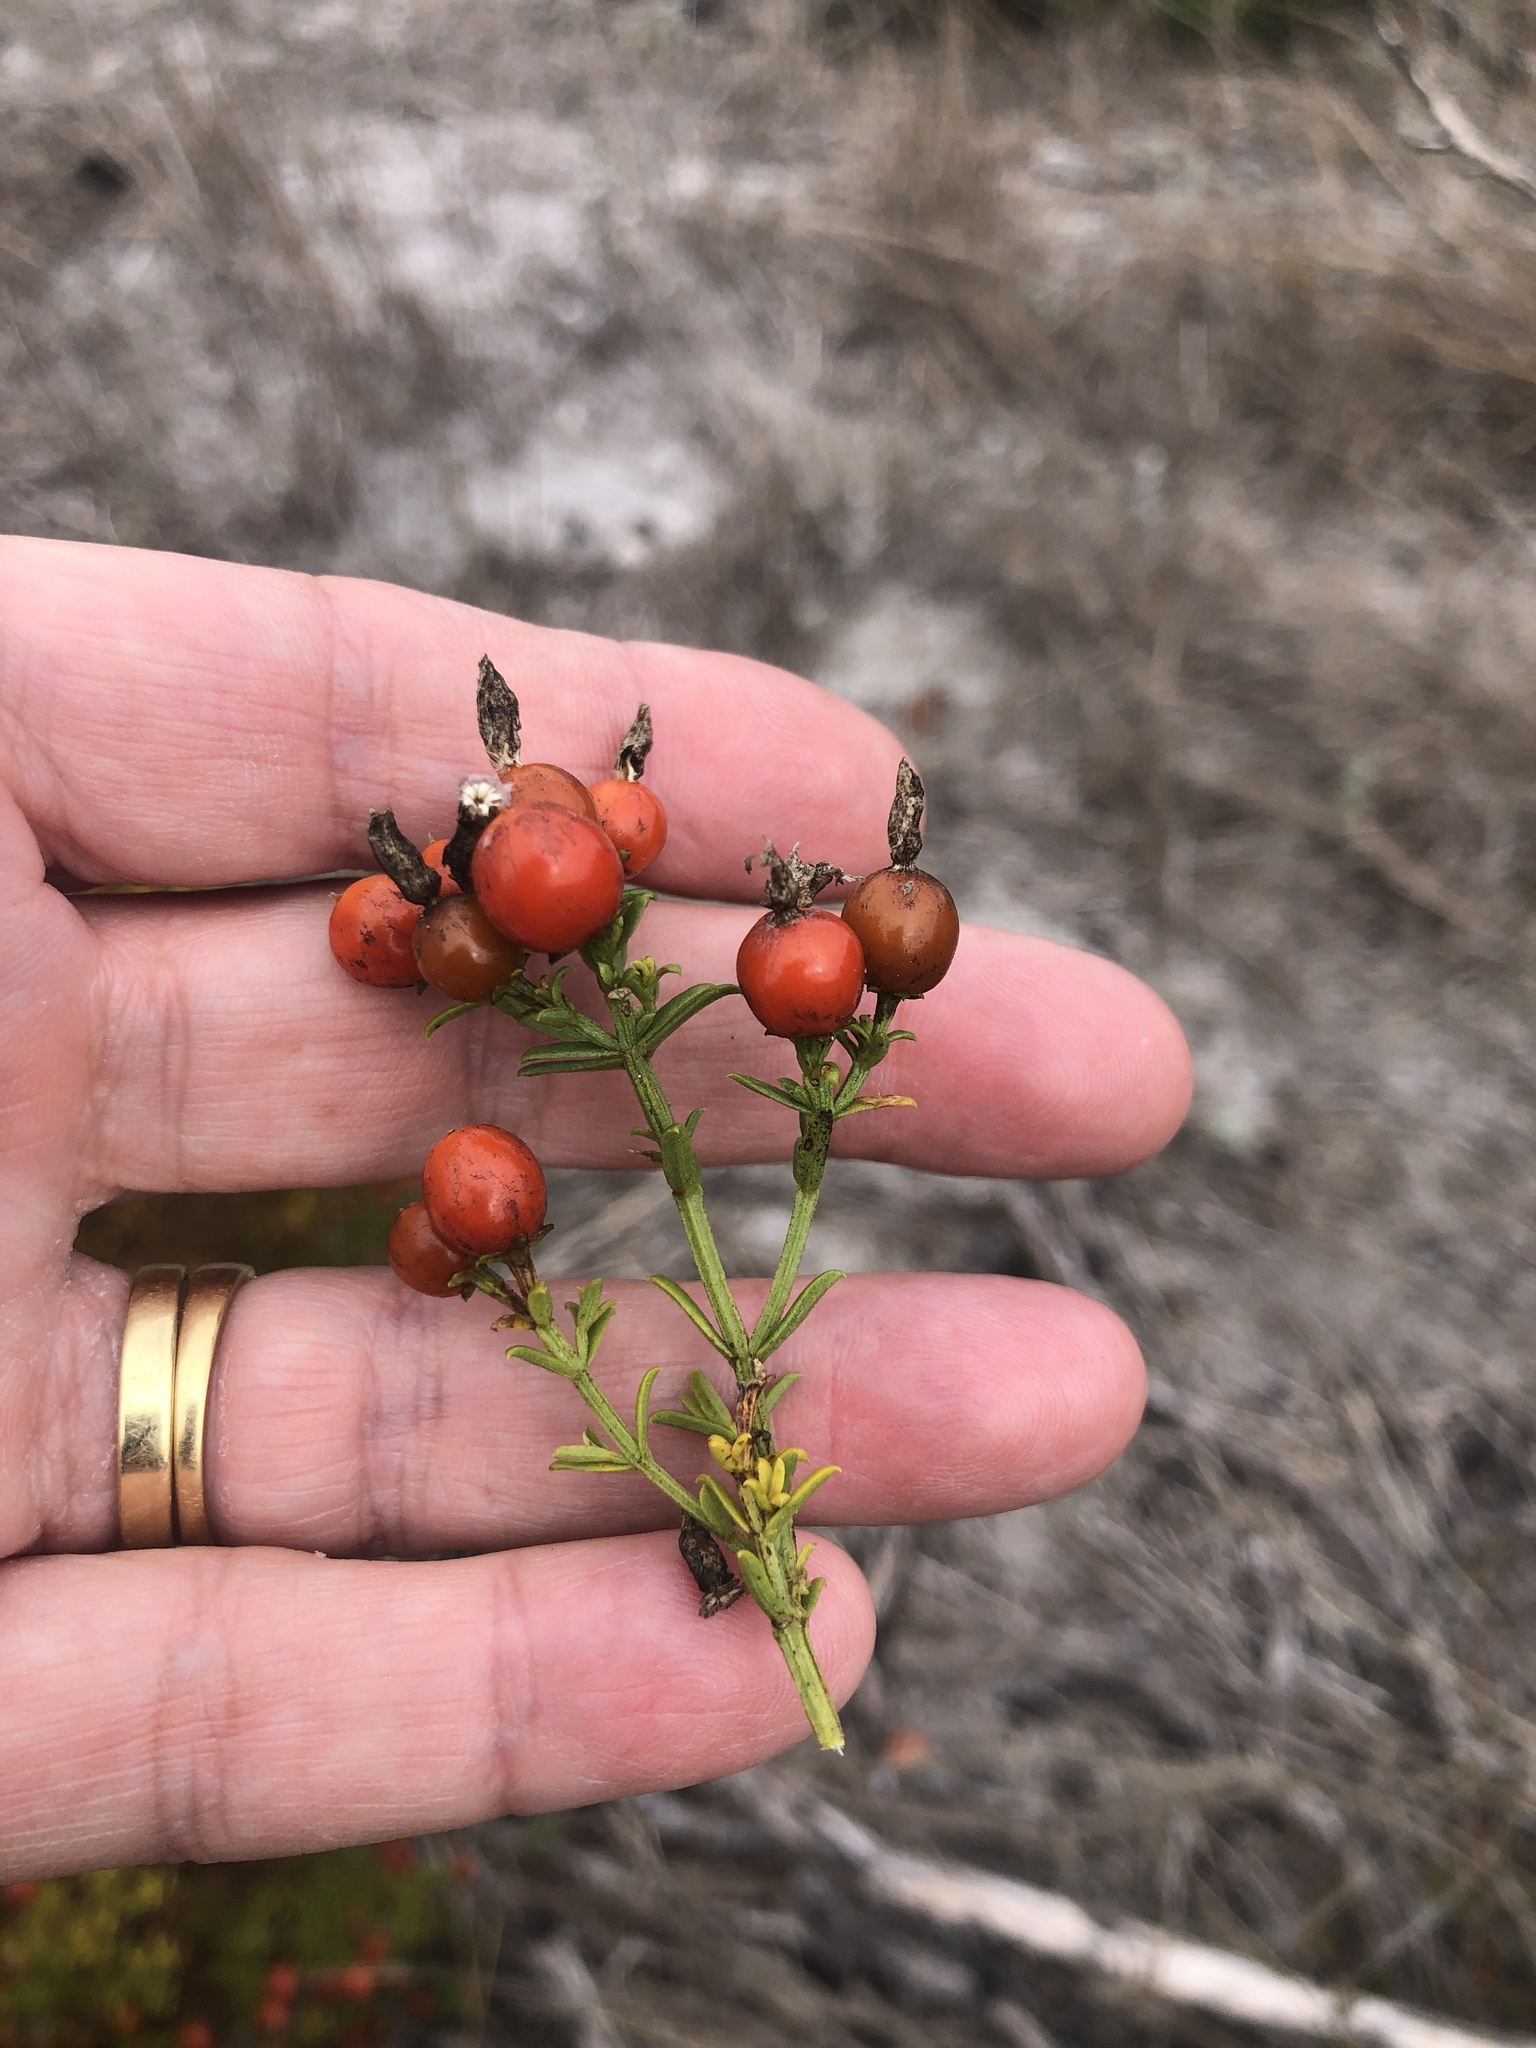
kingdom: Plantae
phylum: Tracheophyta
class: Magnoliopsida
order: Gentianales
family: Gentianaceae
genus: Chironia
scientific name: Chironia baccifera
